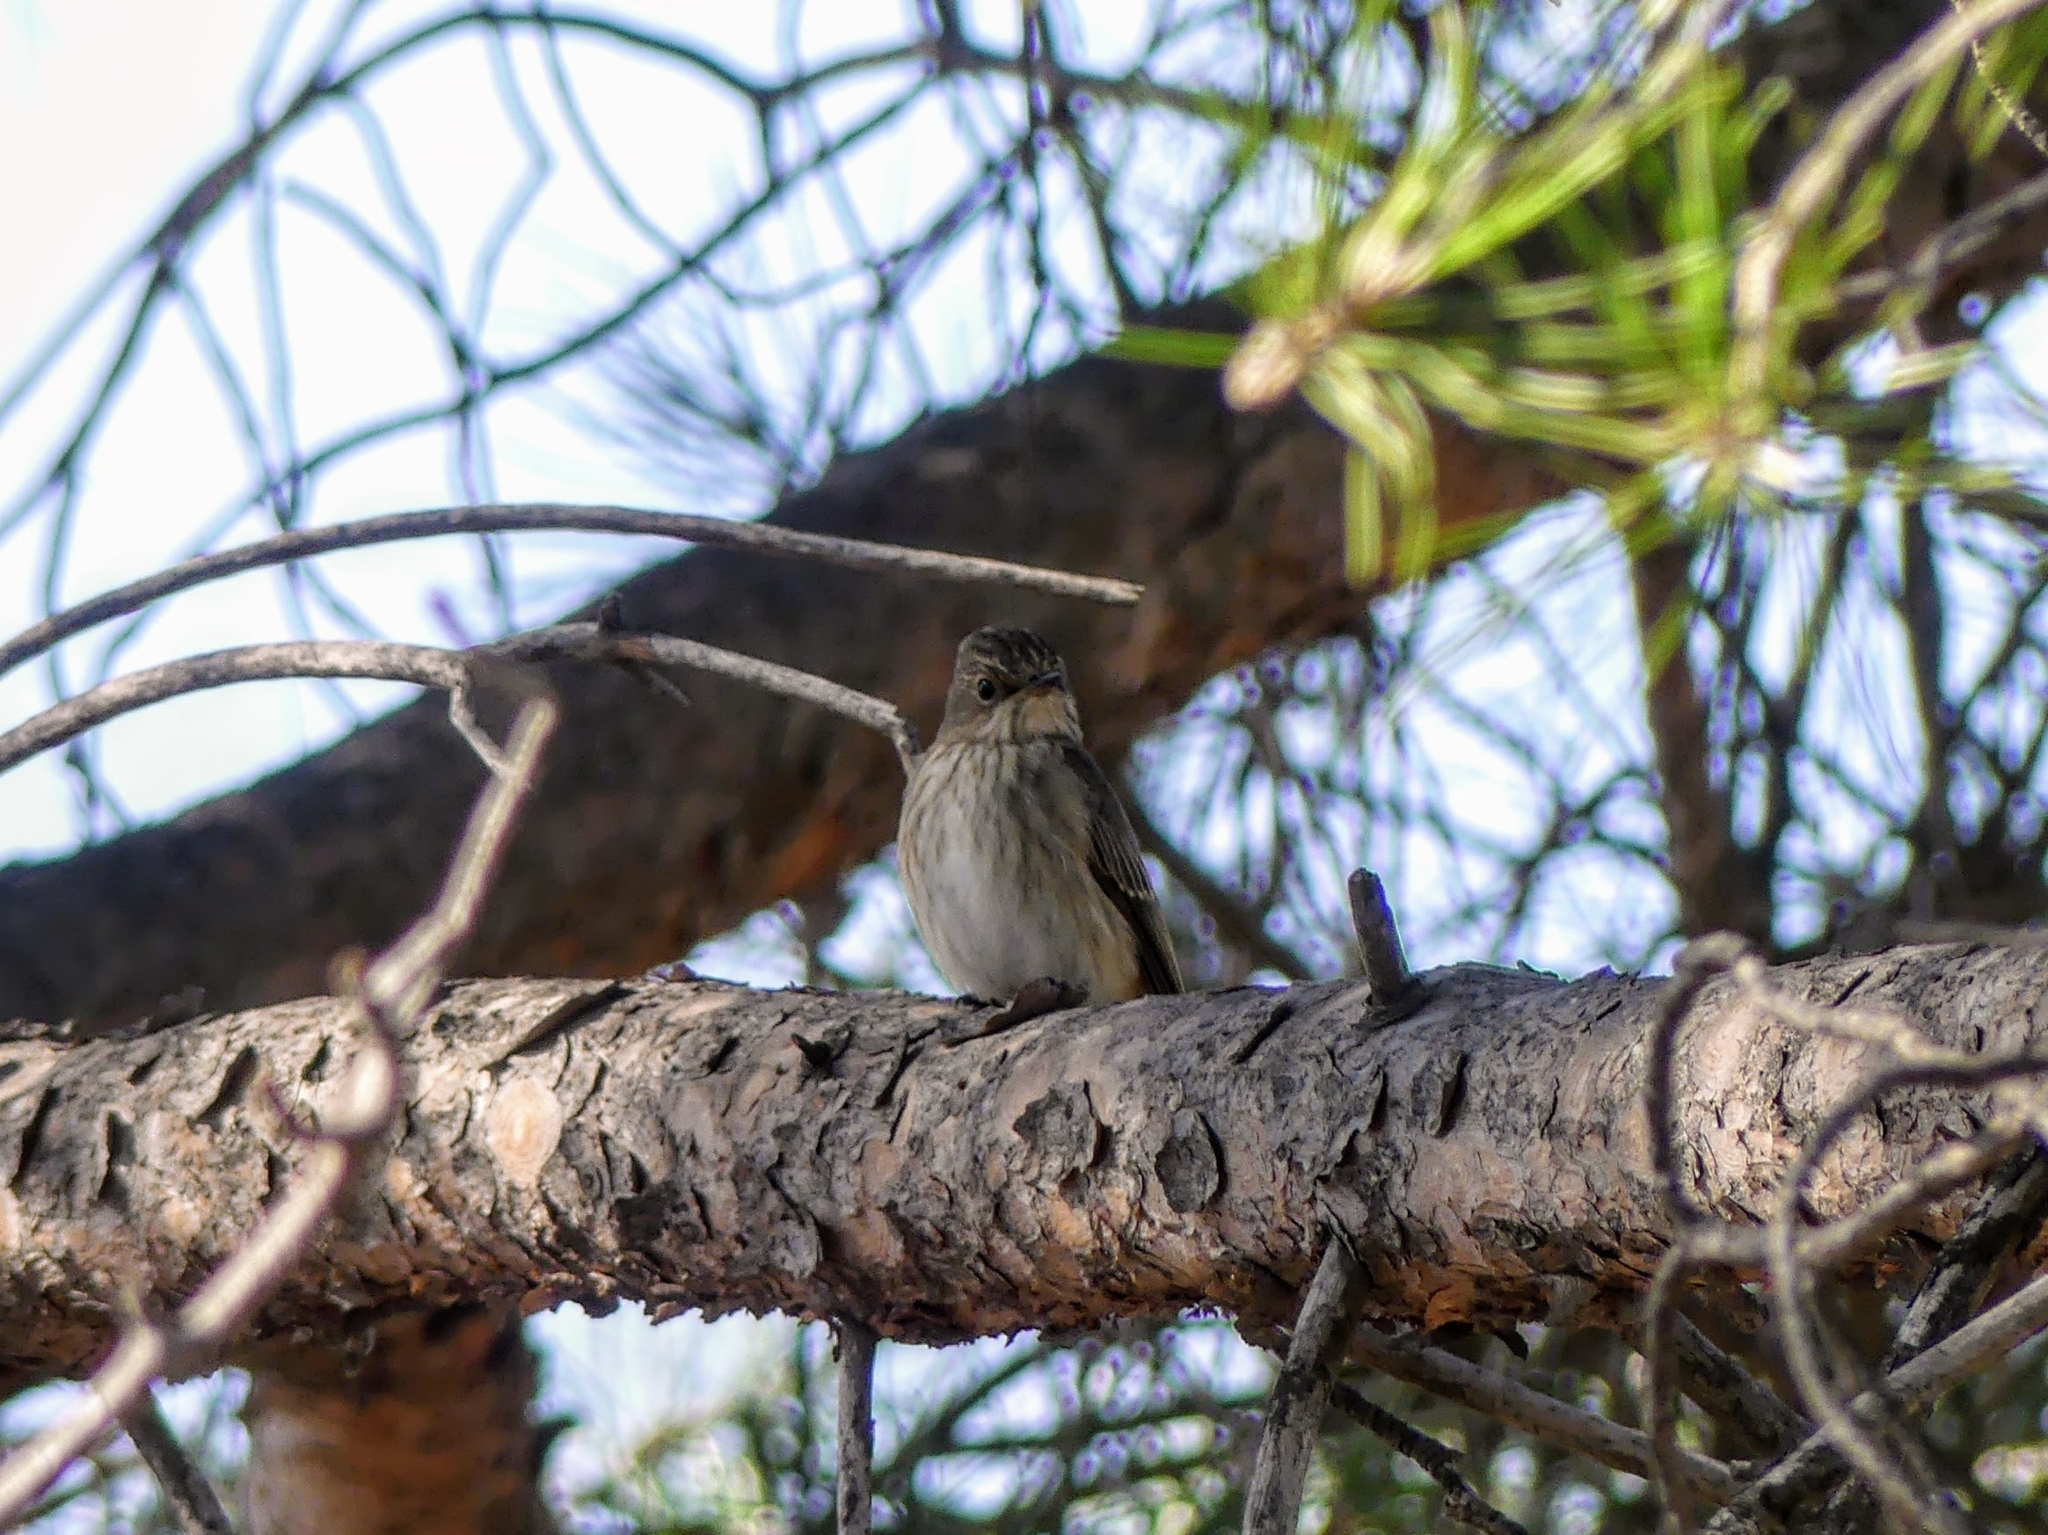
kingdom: Animalia
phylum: Chordata
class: Aves
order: Passeriformes
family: Muscicapidae
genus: Muscicapa
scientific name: Muscicapa striata
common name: Spotted flycatcher
